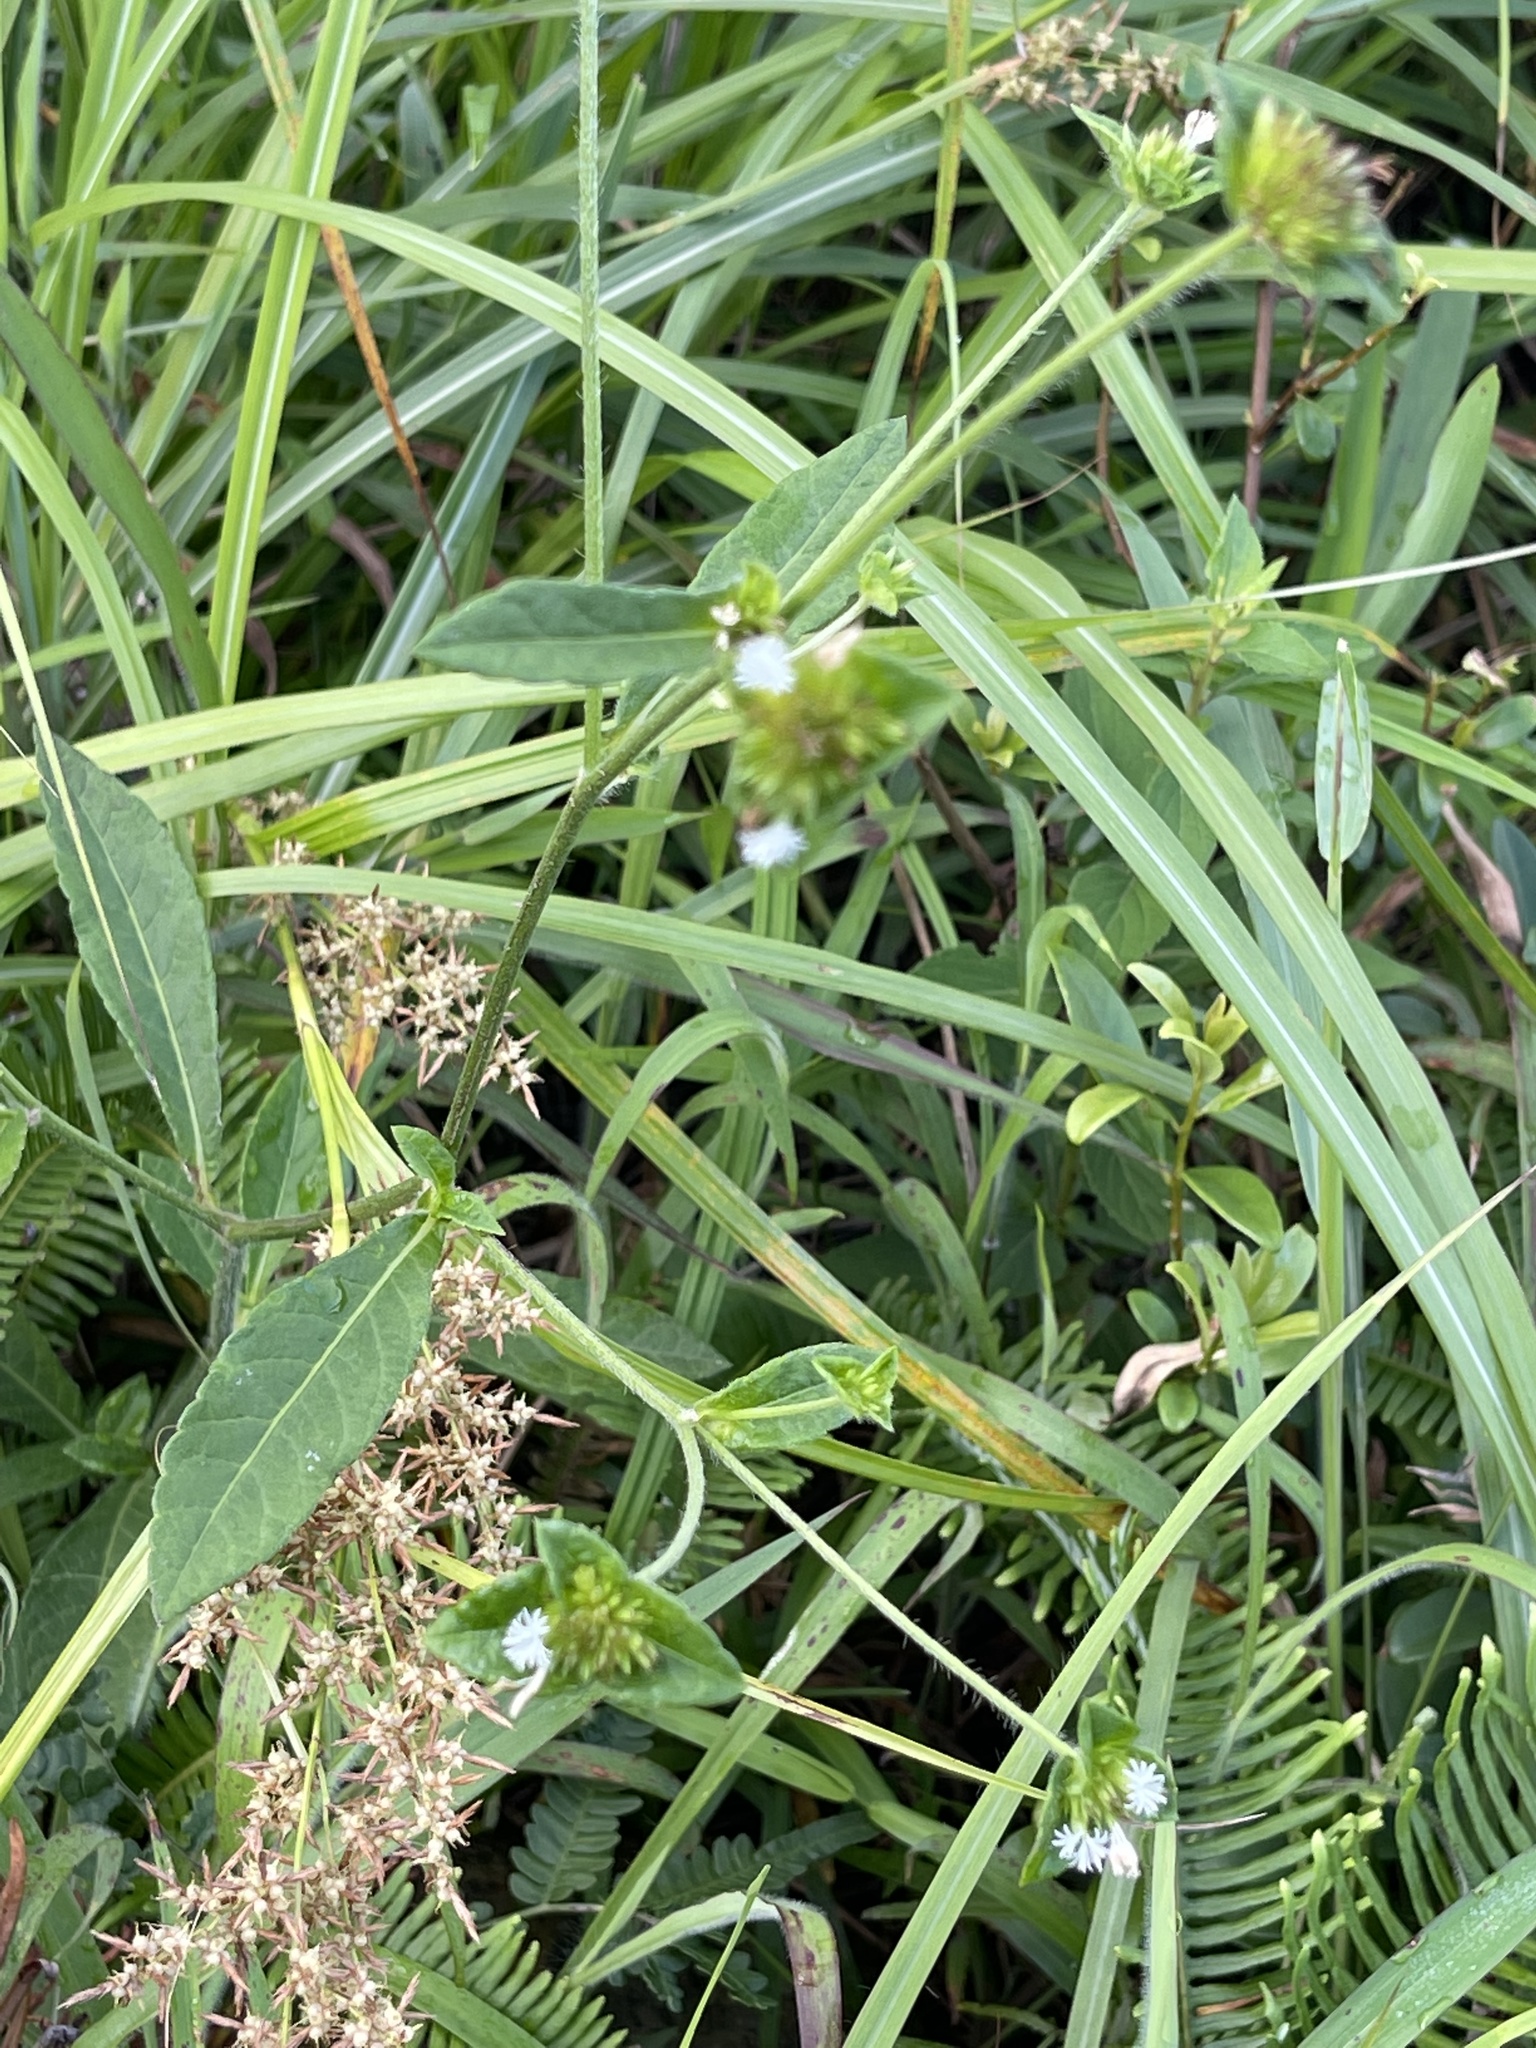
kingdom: Plantae
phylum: Tracheophyta
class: Magnoliopsida
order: Asterales
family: Asteraceae
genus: Elephantopus
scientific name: Elephantopus tomentosus
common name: Tobacco-weed
